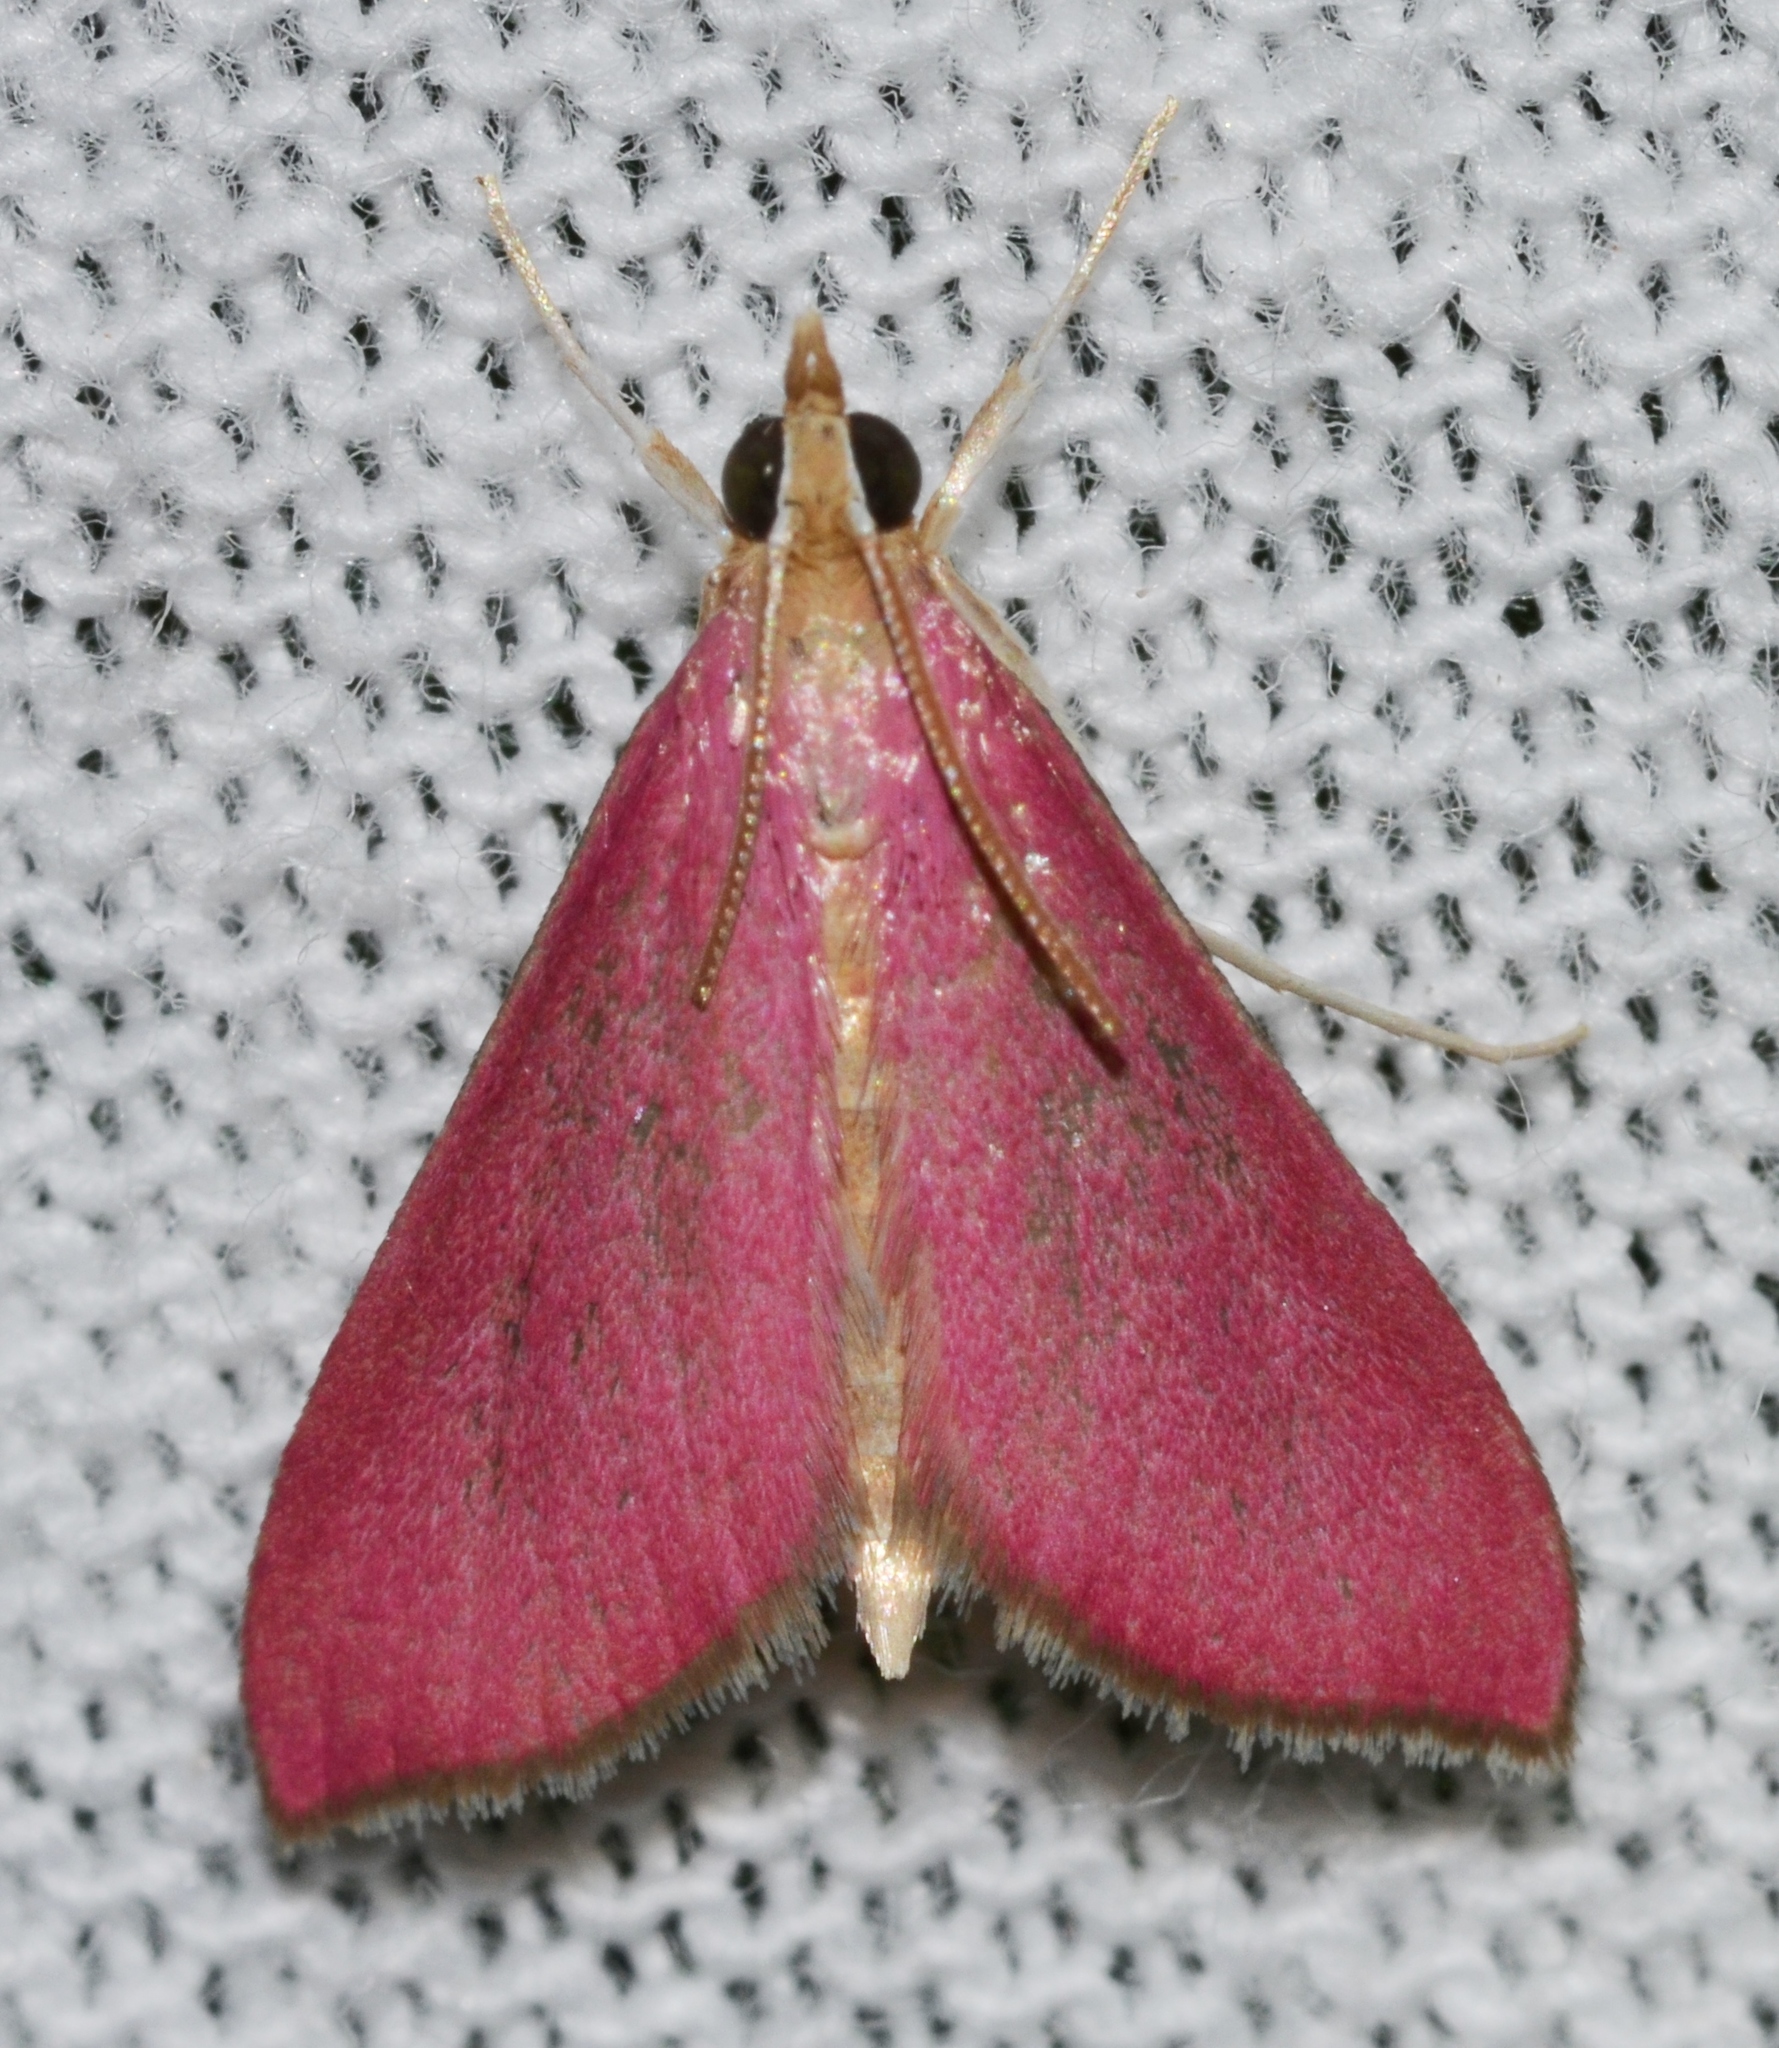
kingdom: Animalia
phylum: Arthropoda
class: Insecta
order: Lepidoptera
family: Crambidae
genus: Pyrausta
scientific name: Pyrausta inornatalis
